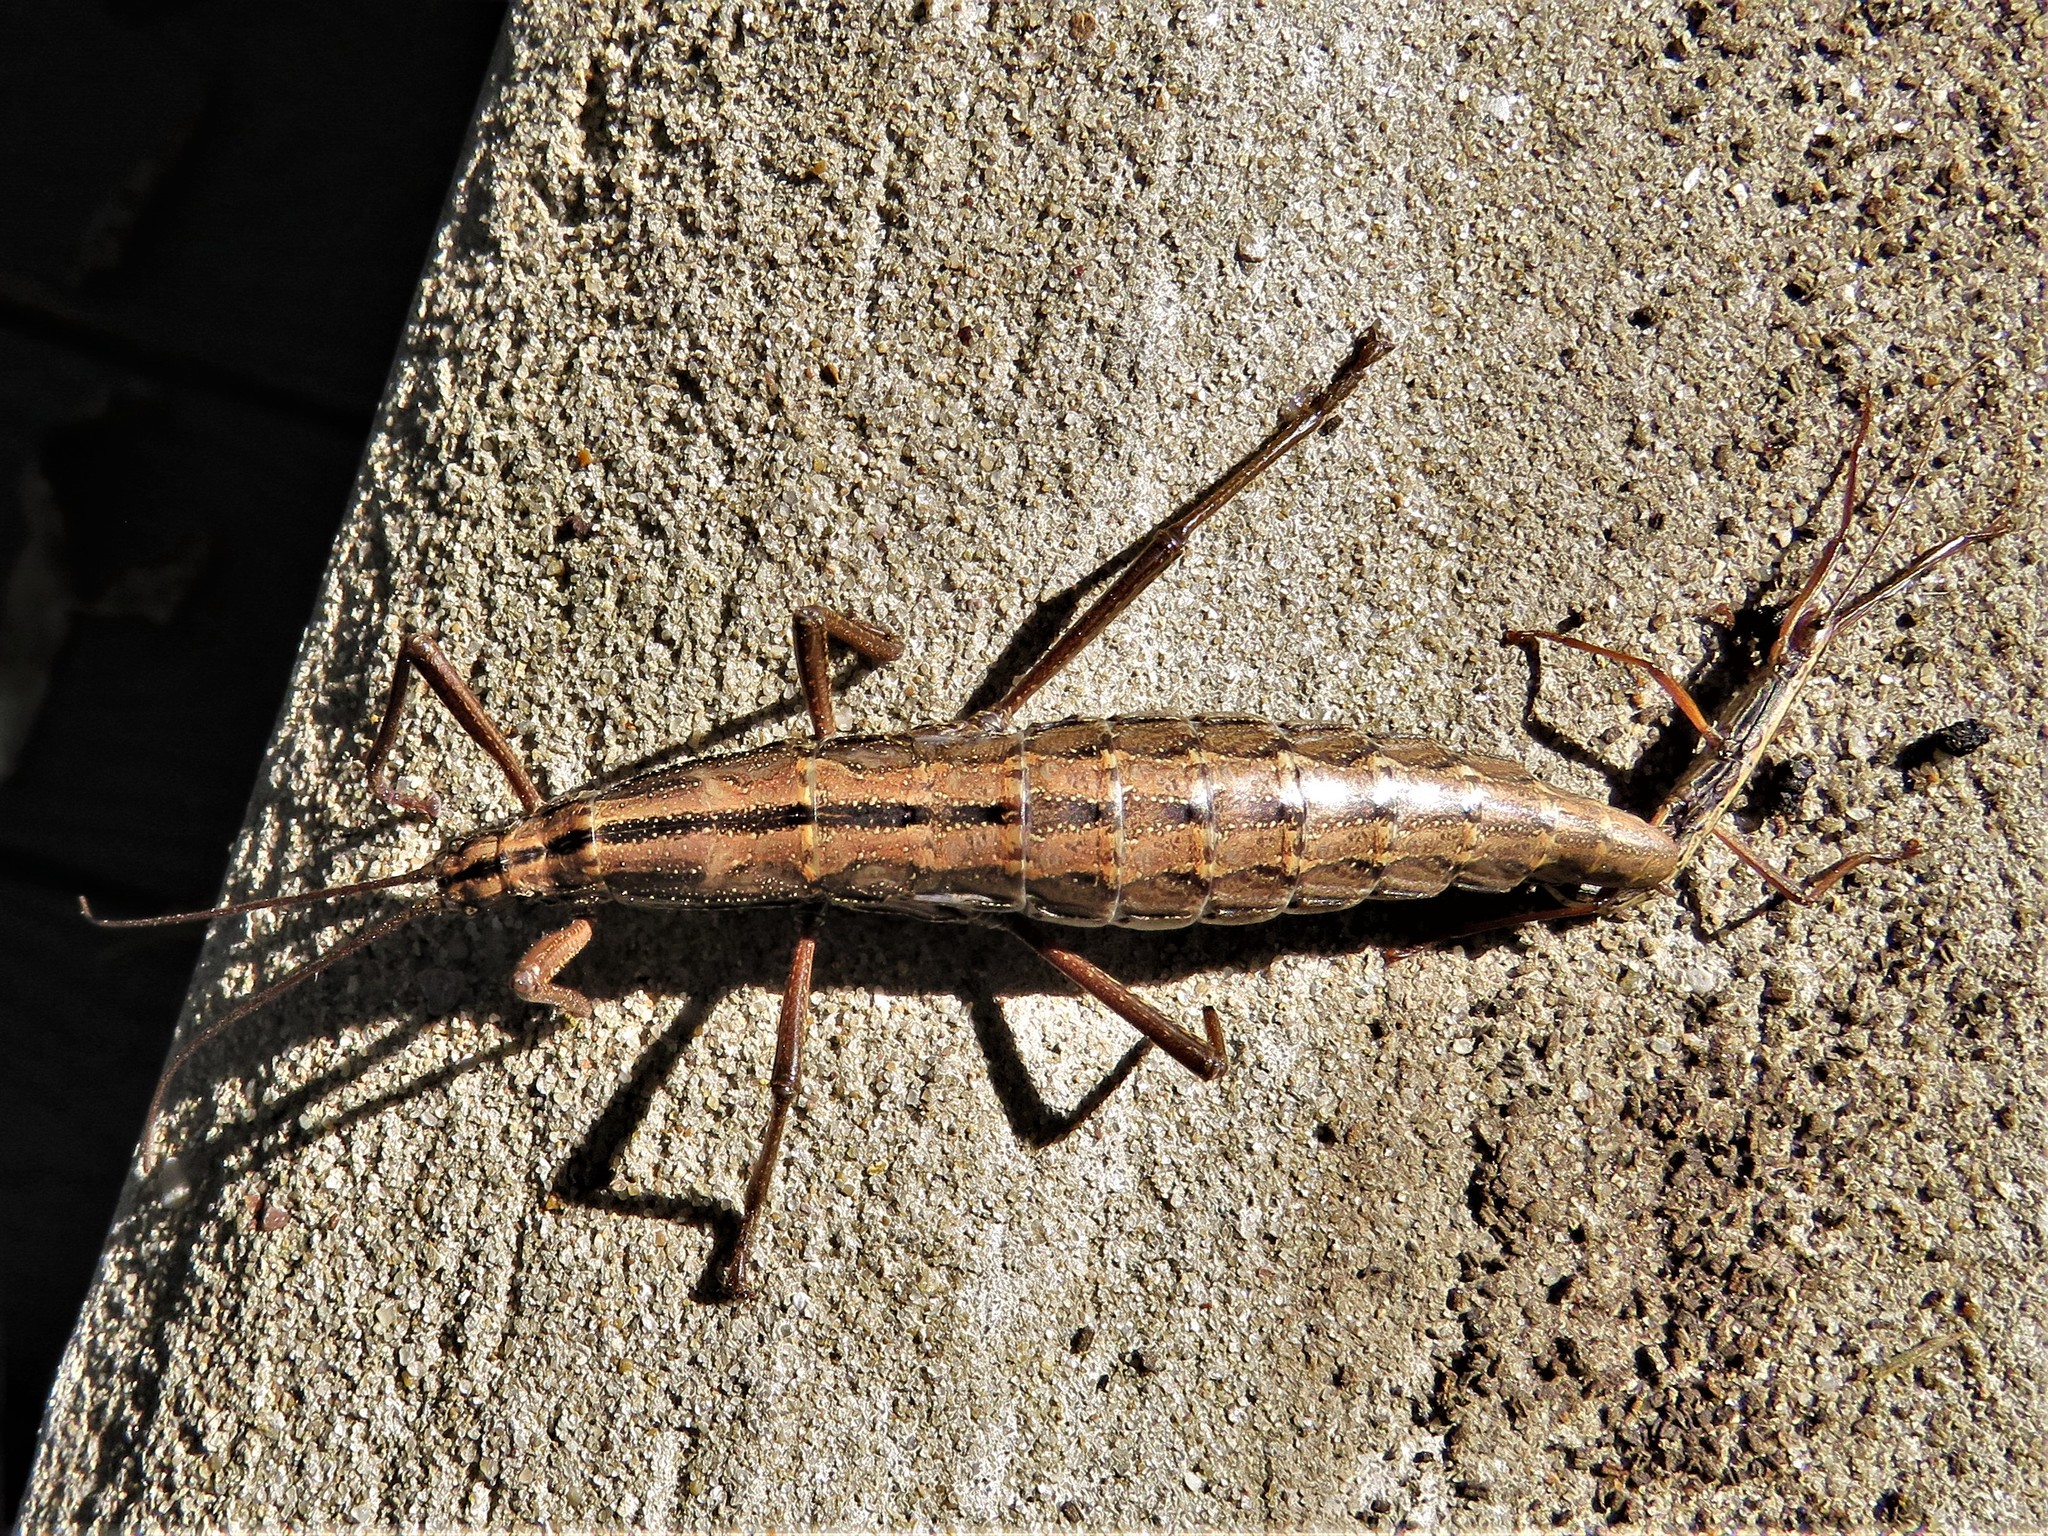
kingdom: Animalia
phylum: Arthropoda
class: Insecta
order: Phasmida
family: Pseudophasmatidae
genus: Anisomorpha
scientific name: Anisomorpha buprestoides
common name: Florida stick insect
